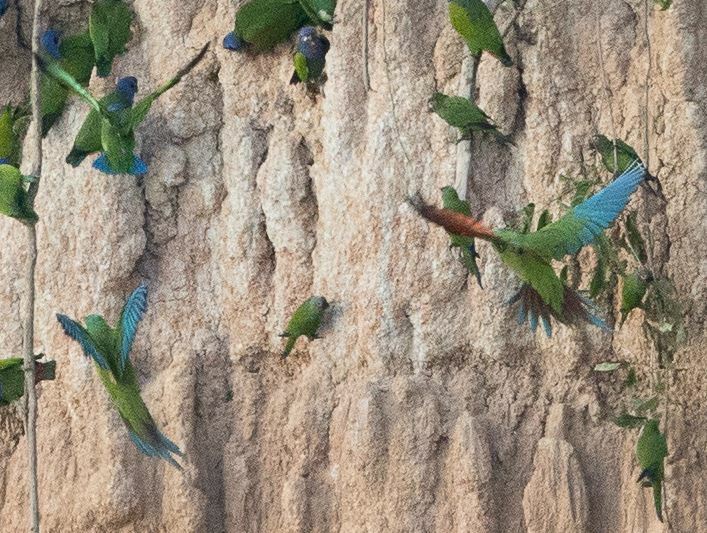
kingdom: Animalia
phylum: Chordata
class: Aves
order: Psittaciformes
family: Psittacidae
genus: Ara
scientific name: Ara severus
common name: Chestnut-fronted macaw
